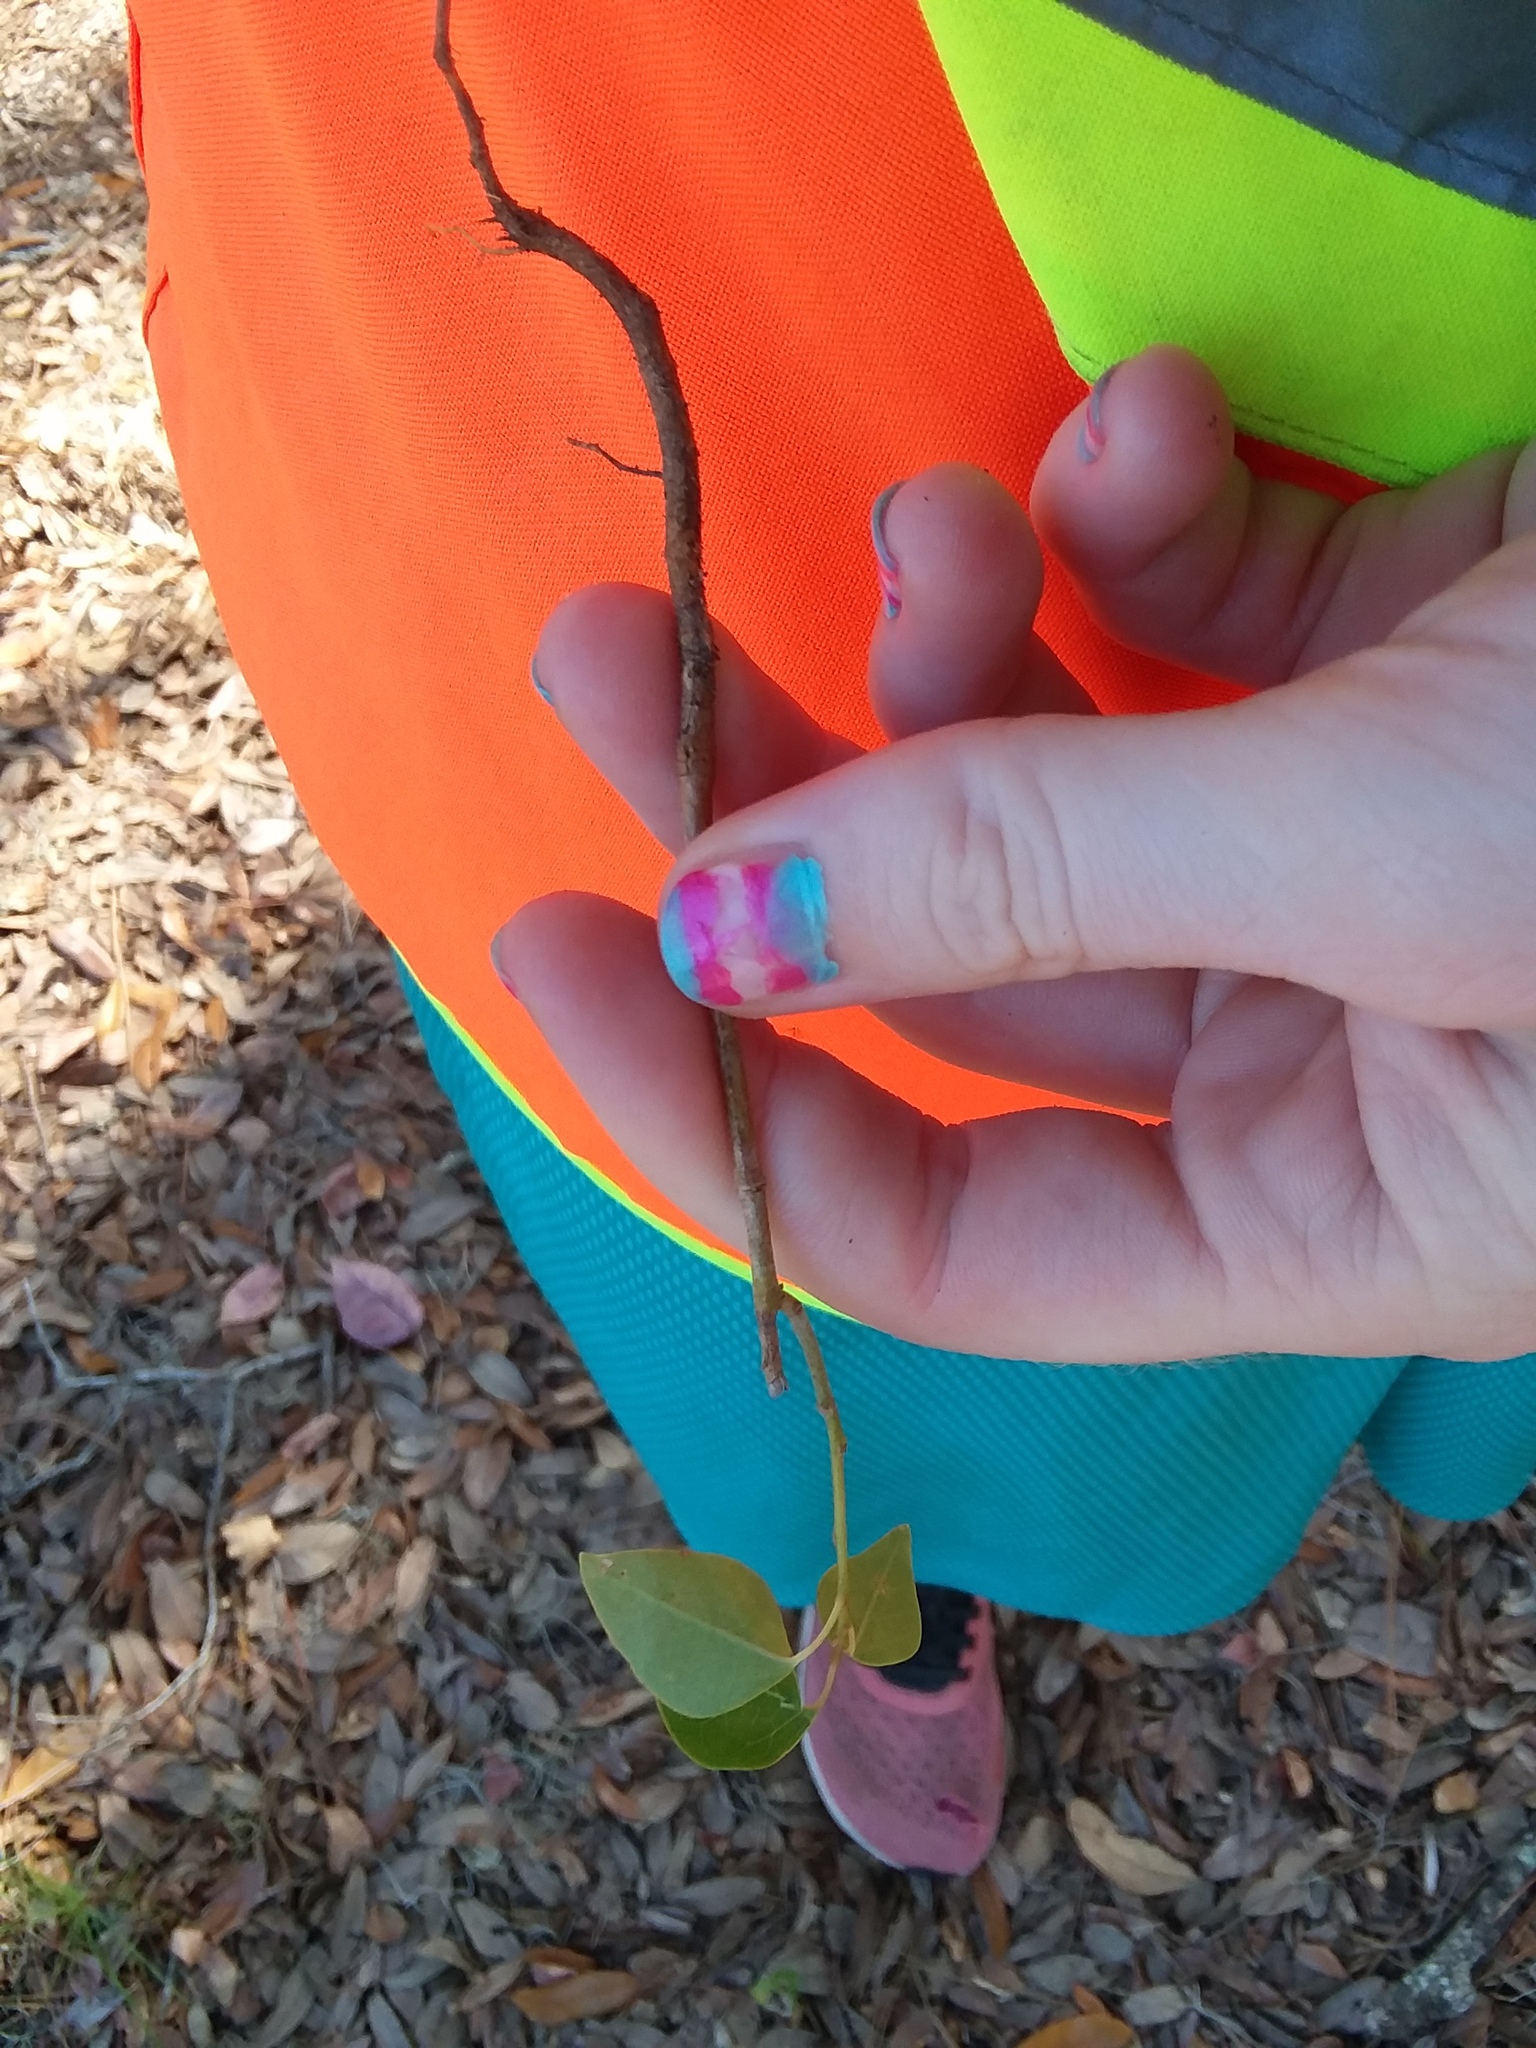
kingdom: Plantae
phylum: Tracheophyta
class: Magnoliopsida
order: Malpighiales
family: Euphorbiaceae
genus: Triadica
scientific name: Triadica sebifera
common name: Chinese tallow
